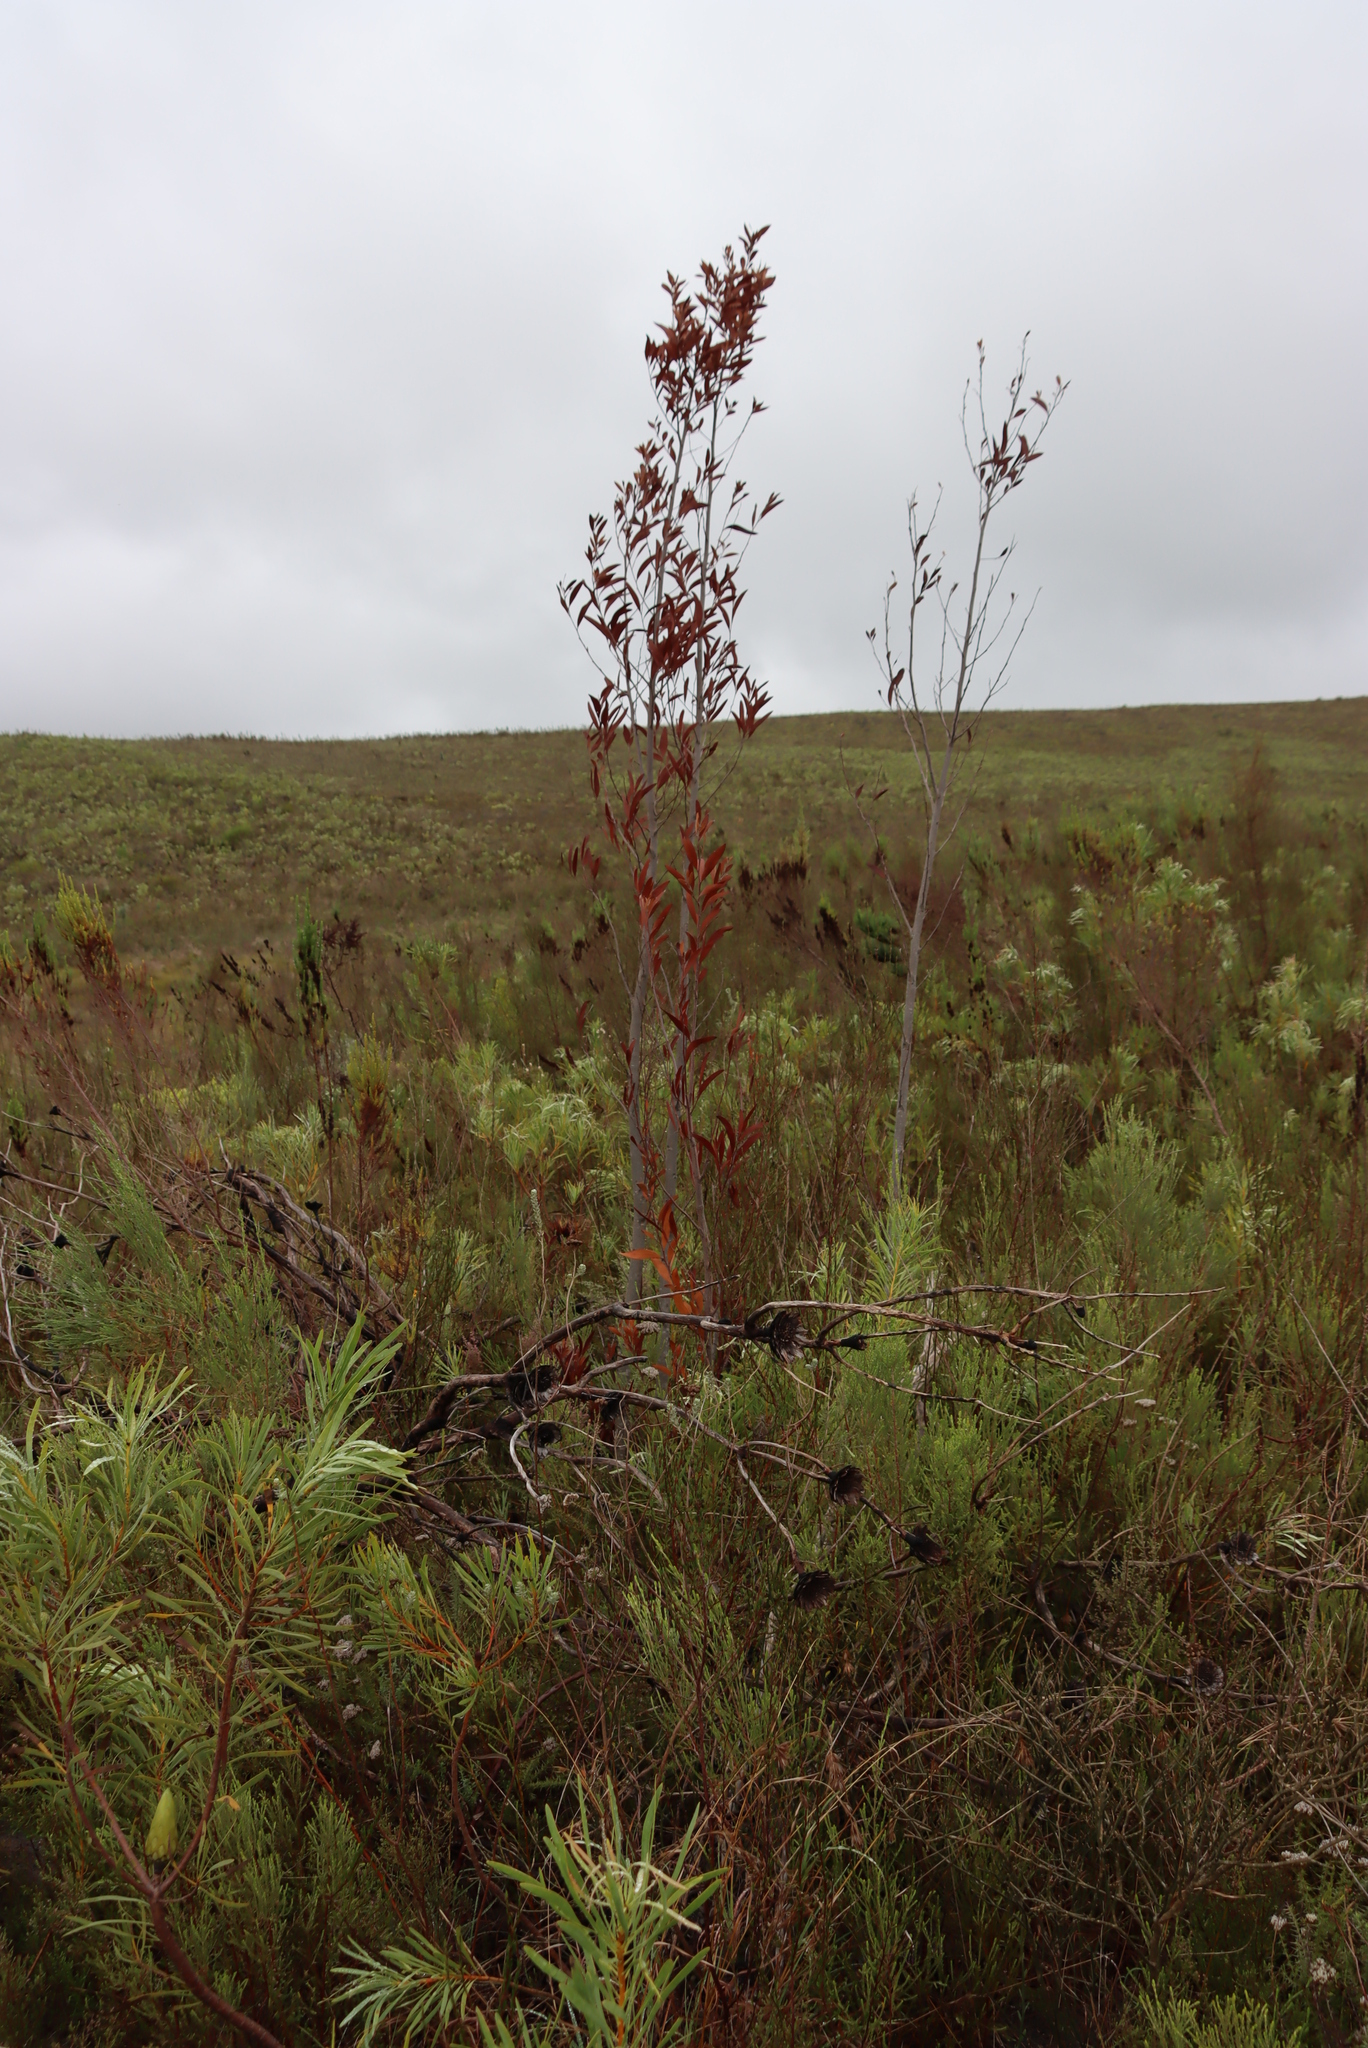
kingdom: Plantae
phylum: Tracheophyta
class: Magnoliopsida
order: Fabales
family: Fabaceae
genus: Acacia
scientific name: Acacia melanoxylon
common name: Blackwood
